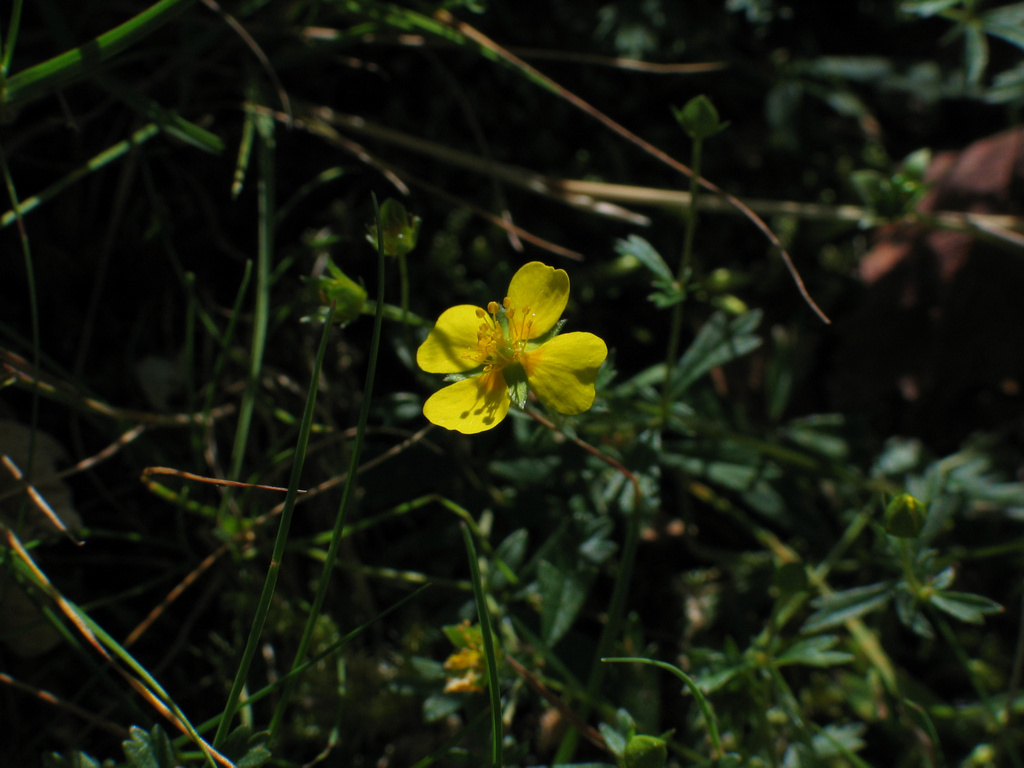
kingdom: Plantae
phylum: Tracheophyta
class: Magnoliopsida
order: Rosales
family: Rosaceae
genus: Potentilla
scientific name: Potentilla erecta
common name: Tormentil
